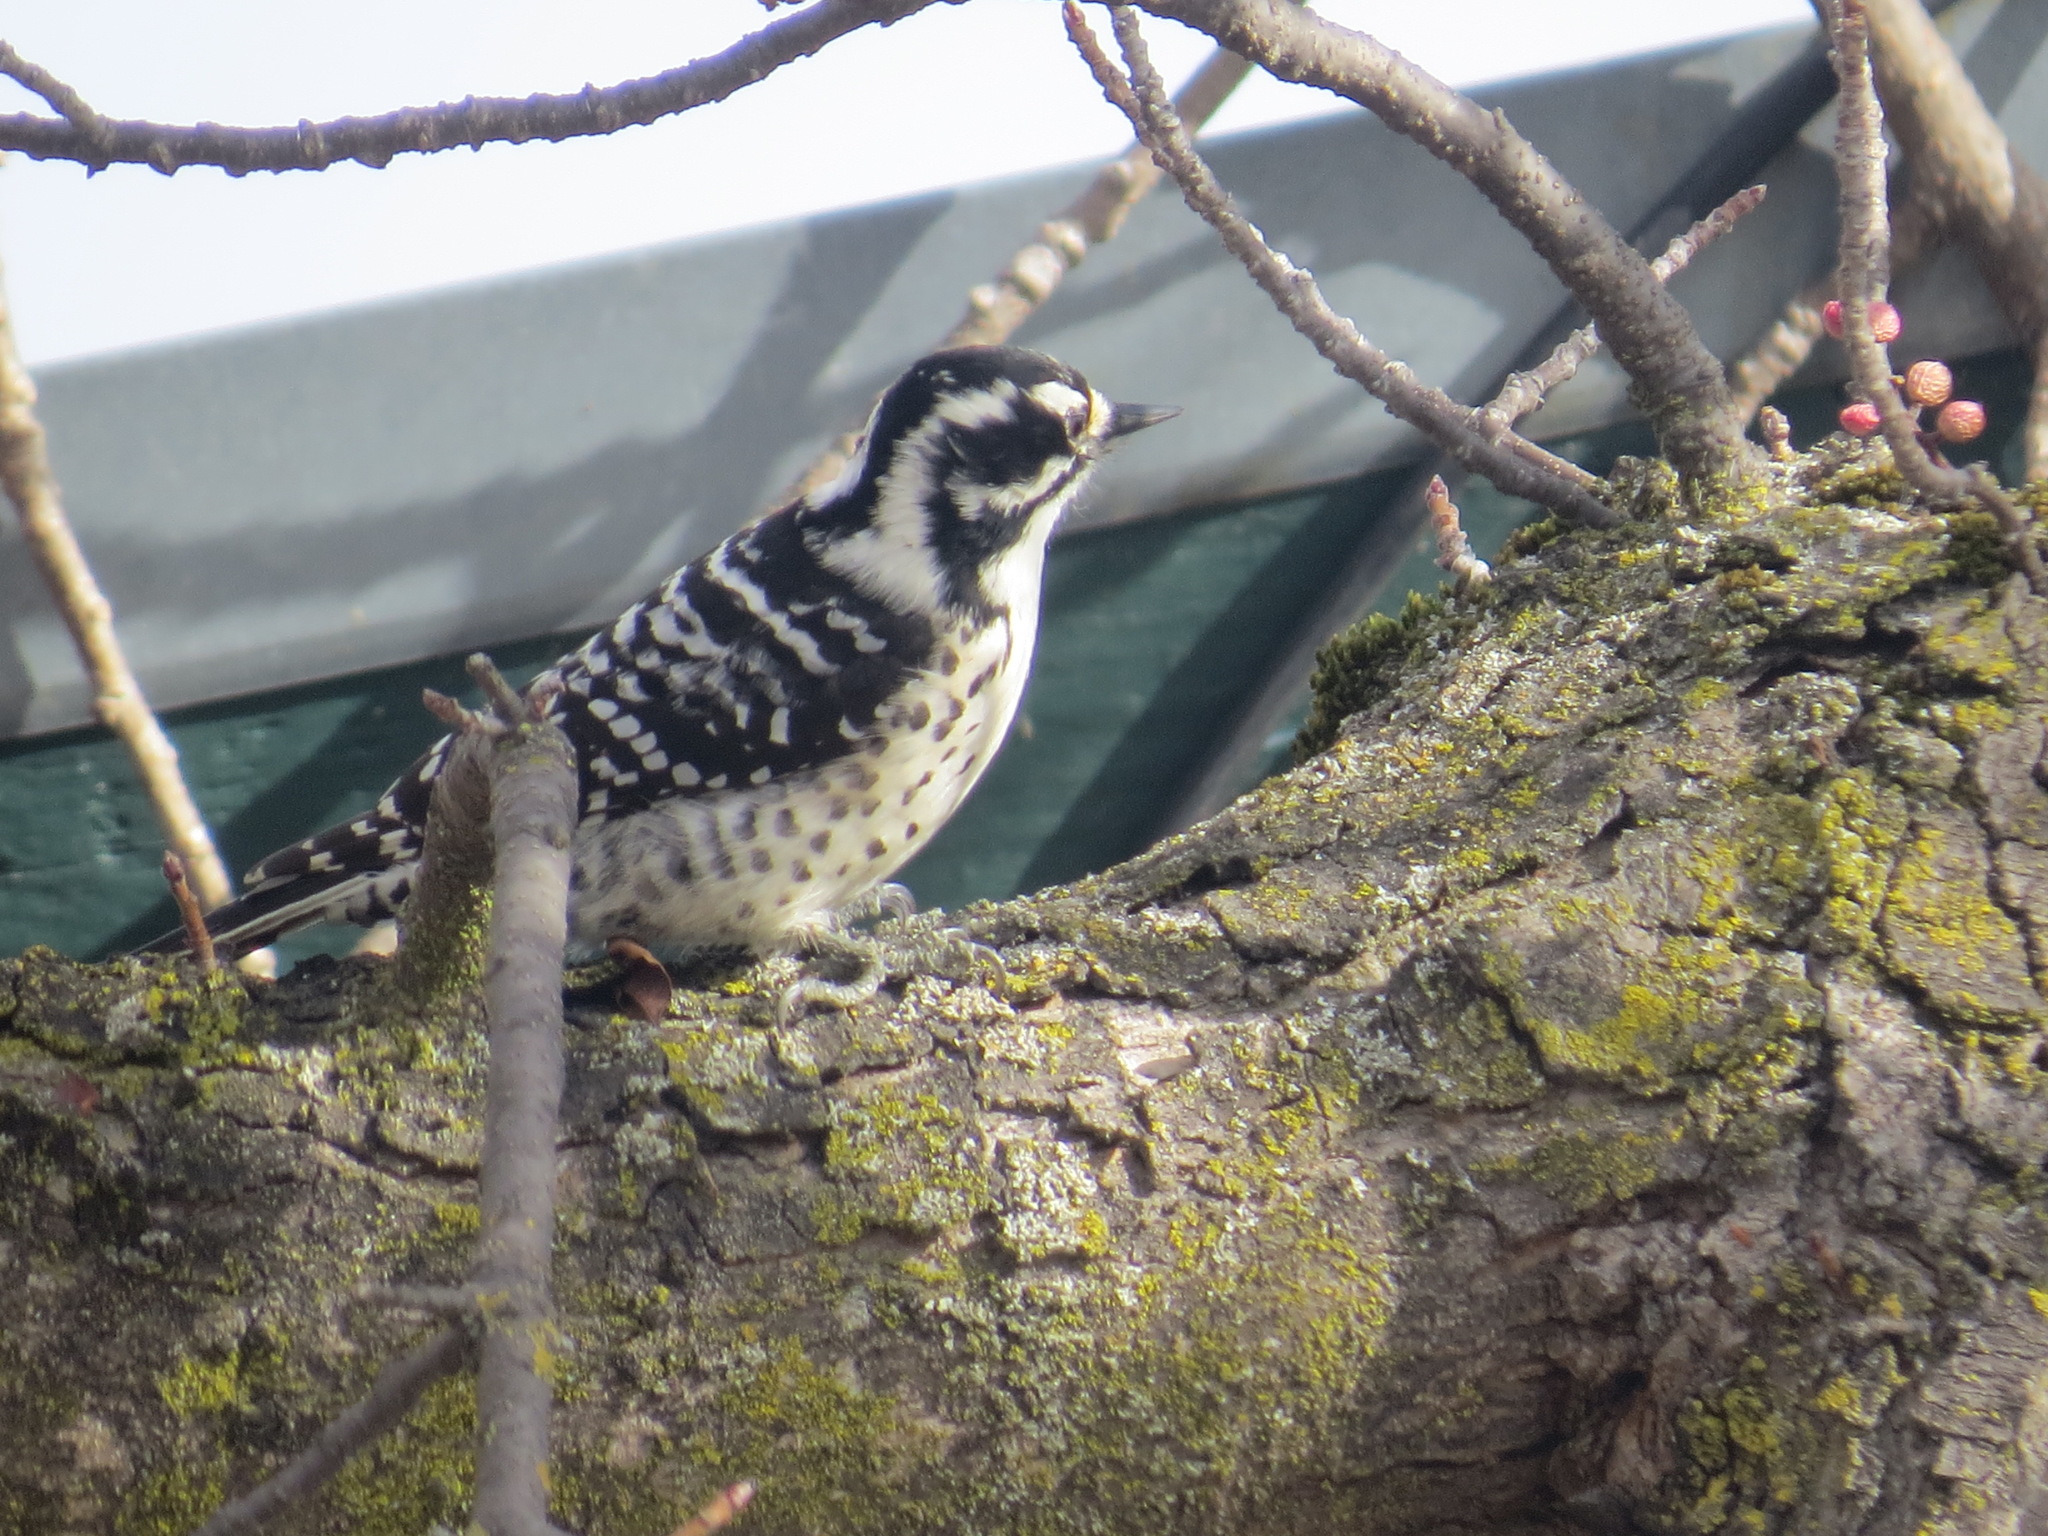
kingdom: Animalia
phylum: Chordata
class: Aves
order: Piciformes
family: Picidae
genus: Dryobates
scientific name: Dryobates nuttallii
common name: Nuttall's woodpecker
